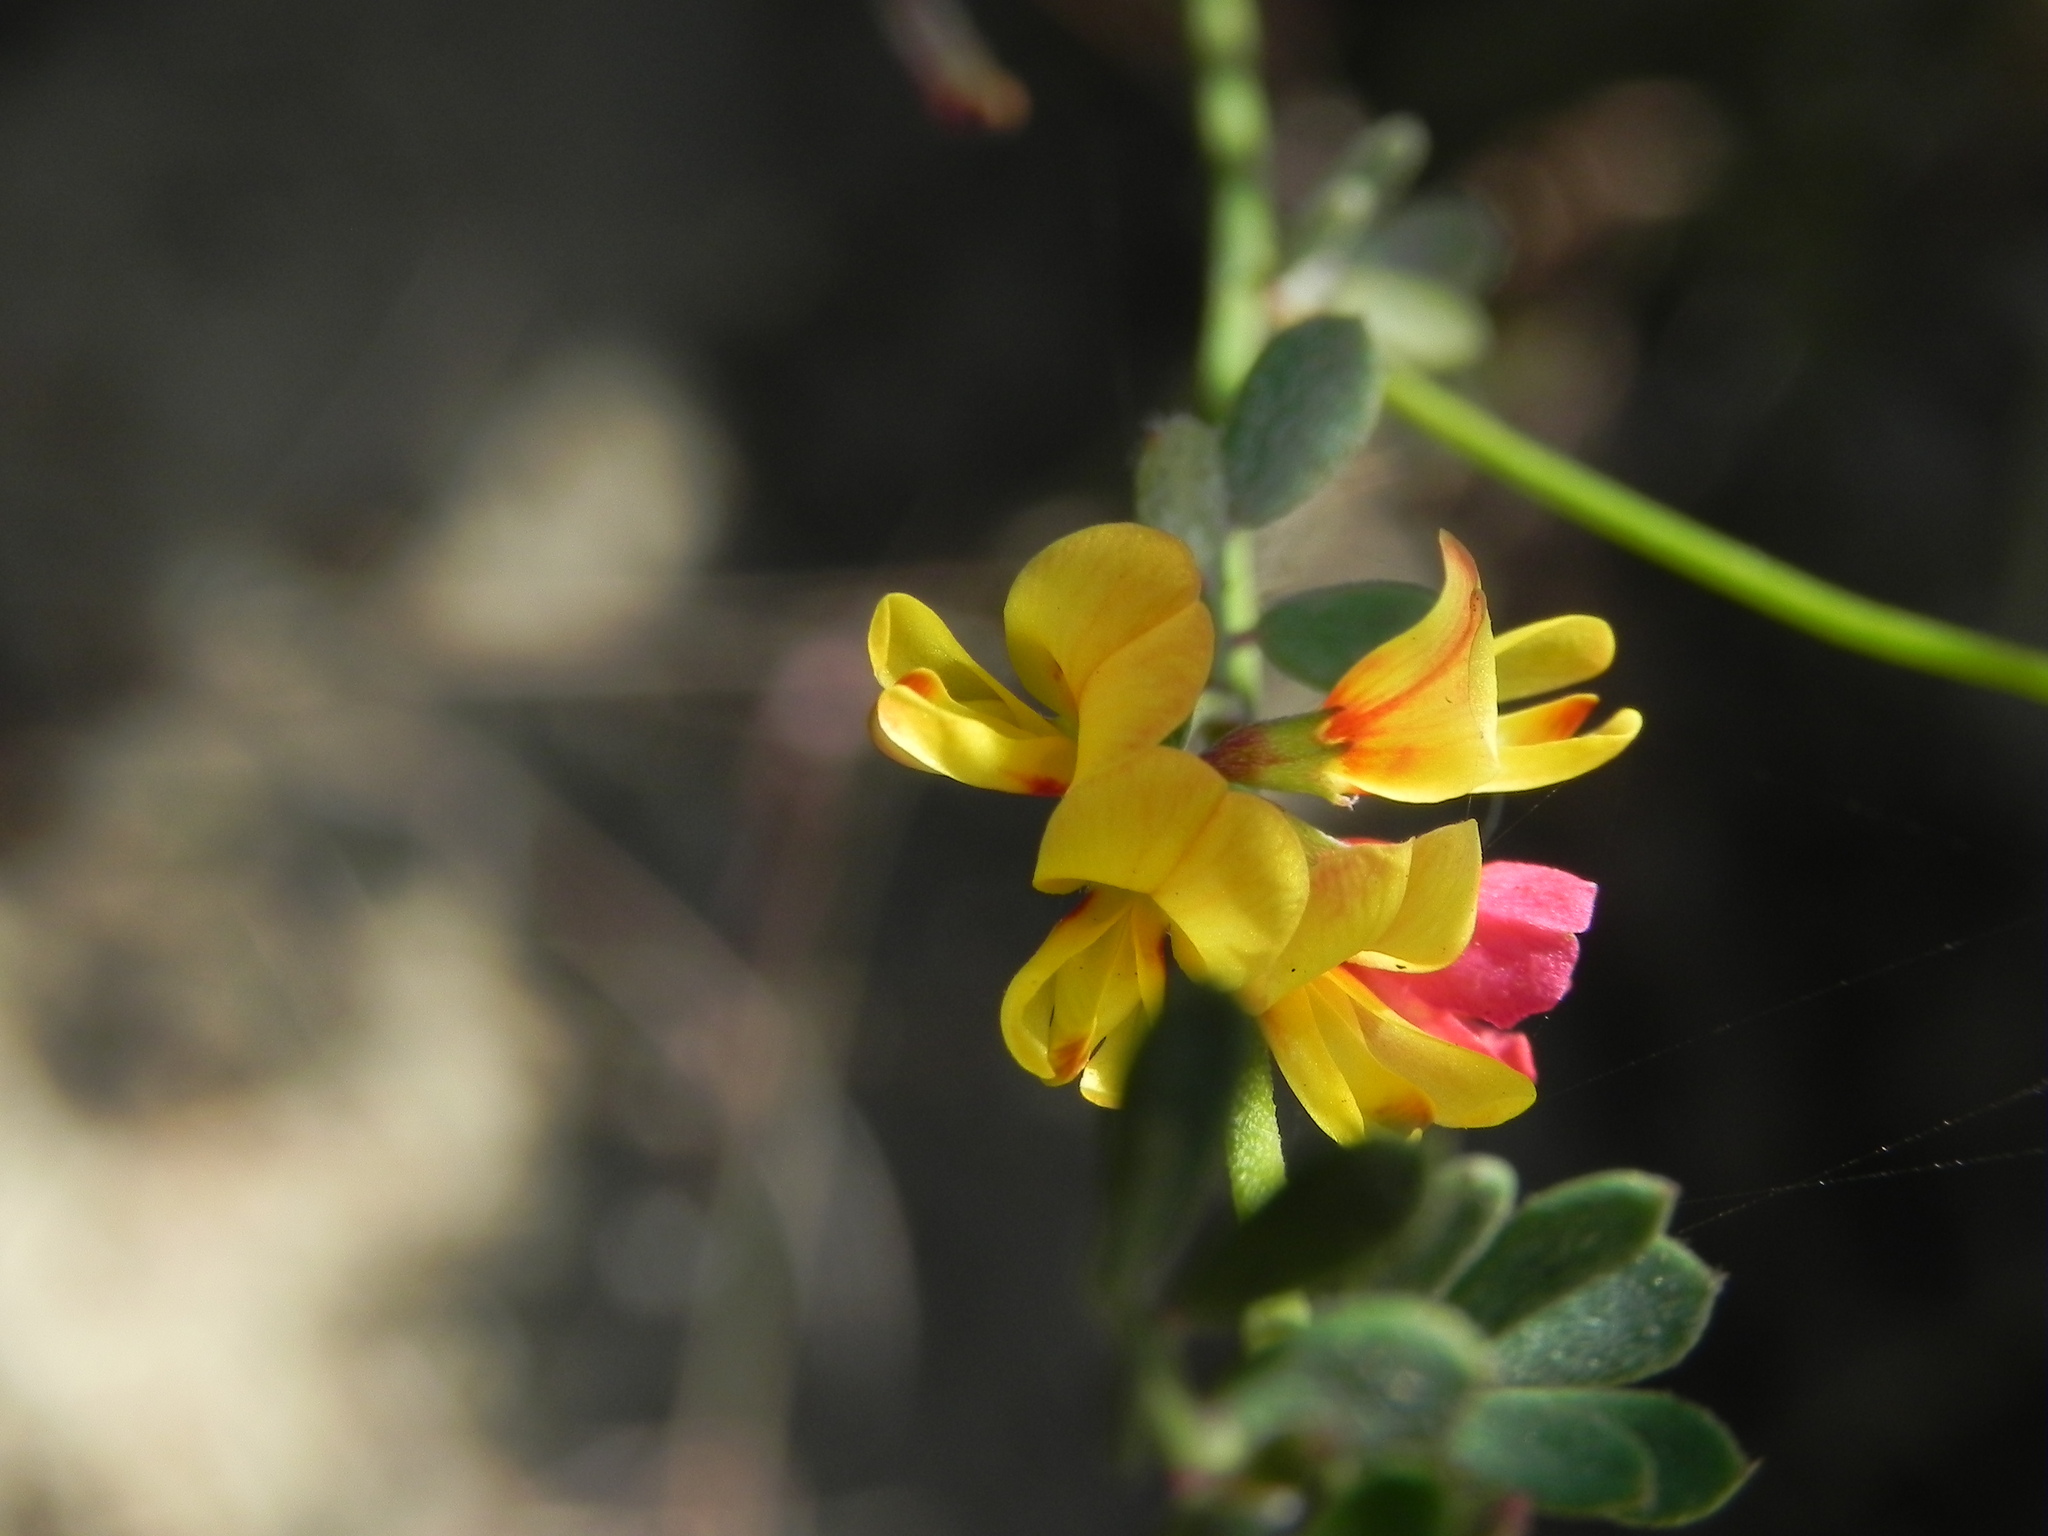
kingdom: Plantae
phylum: Tracheophyta
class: Magnoliopsida
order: Fabales
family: Fabaceae
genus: Acmispon
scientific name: Acmispon prostratus
